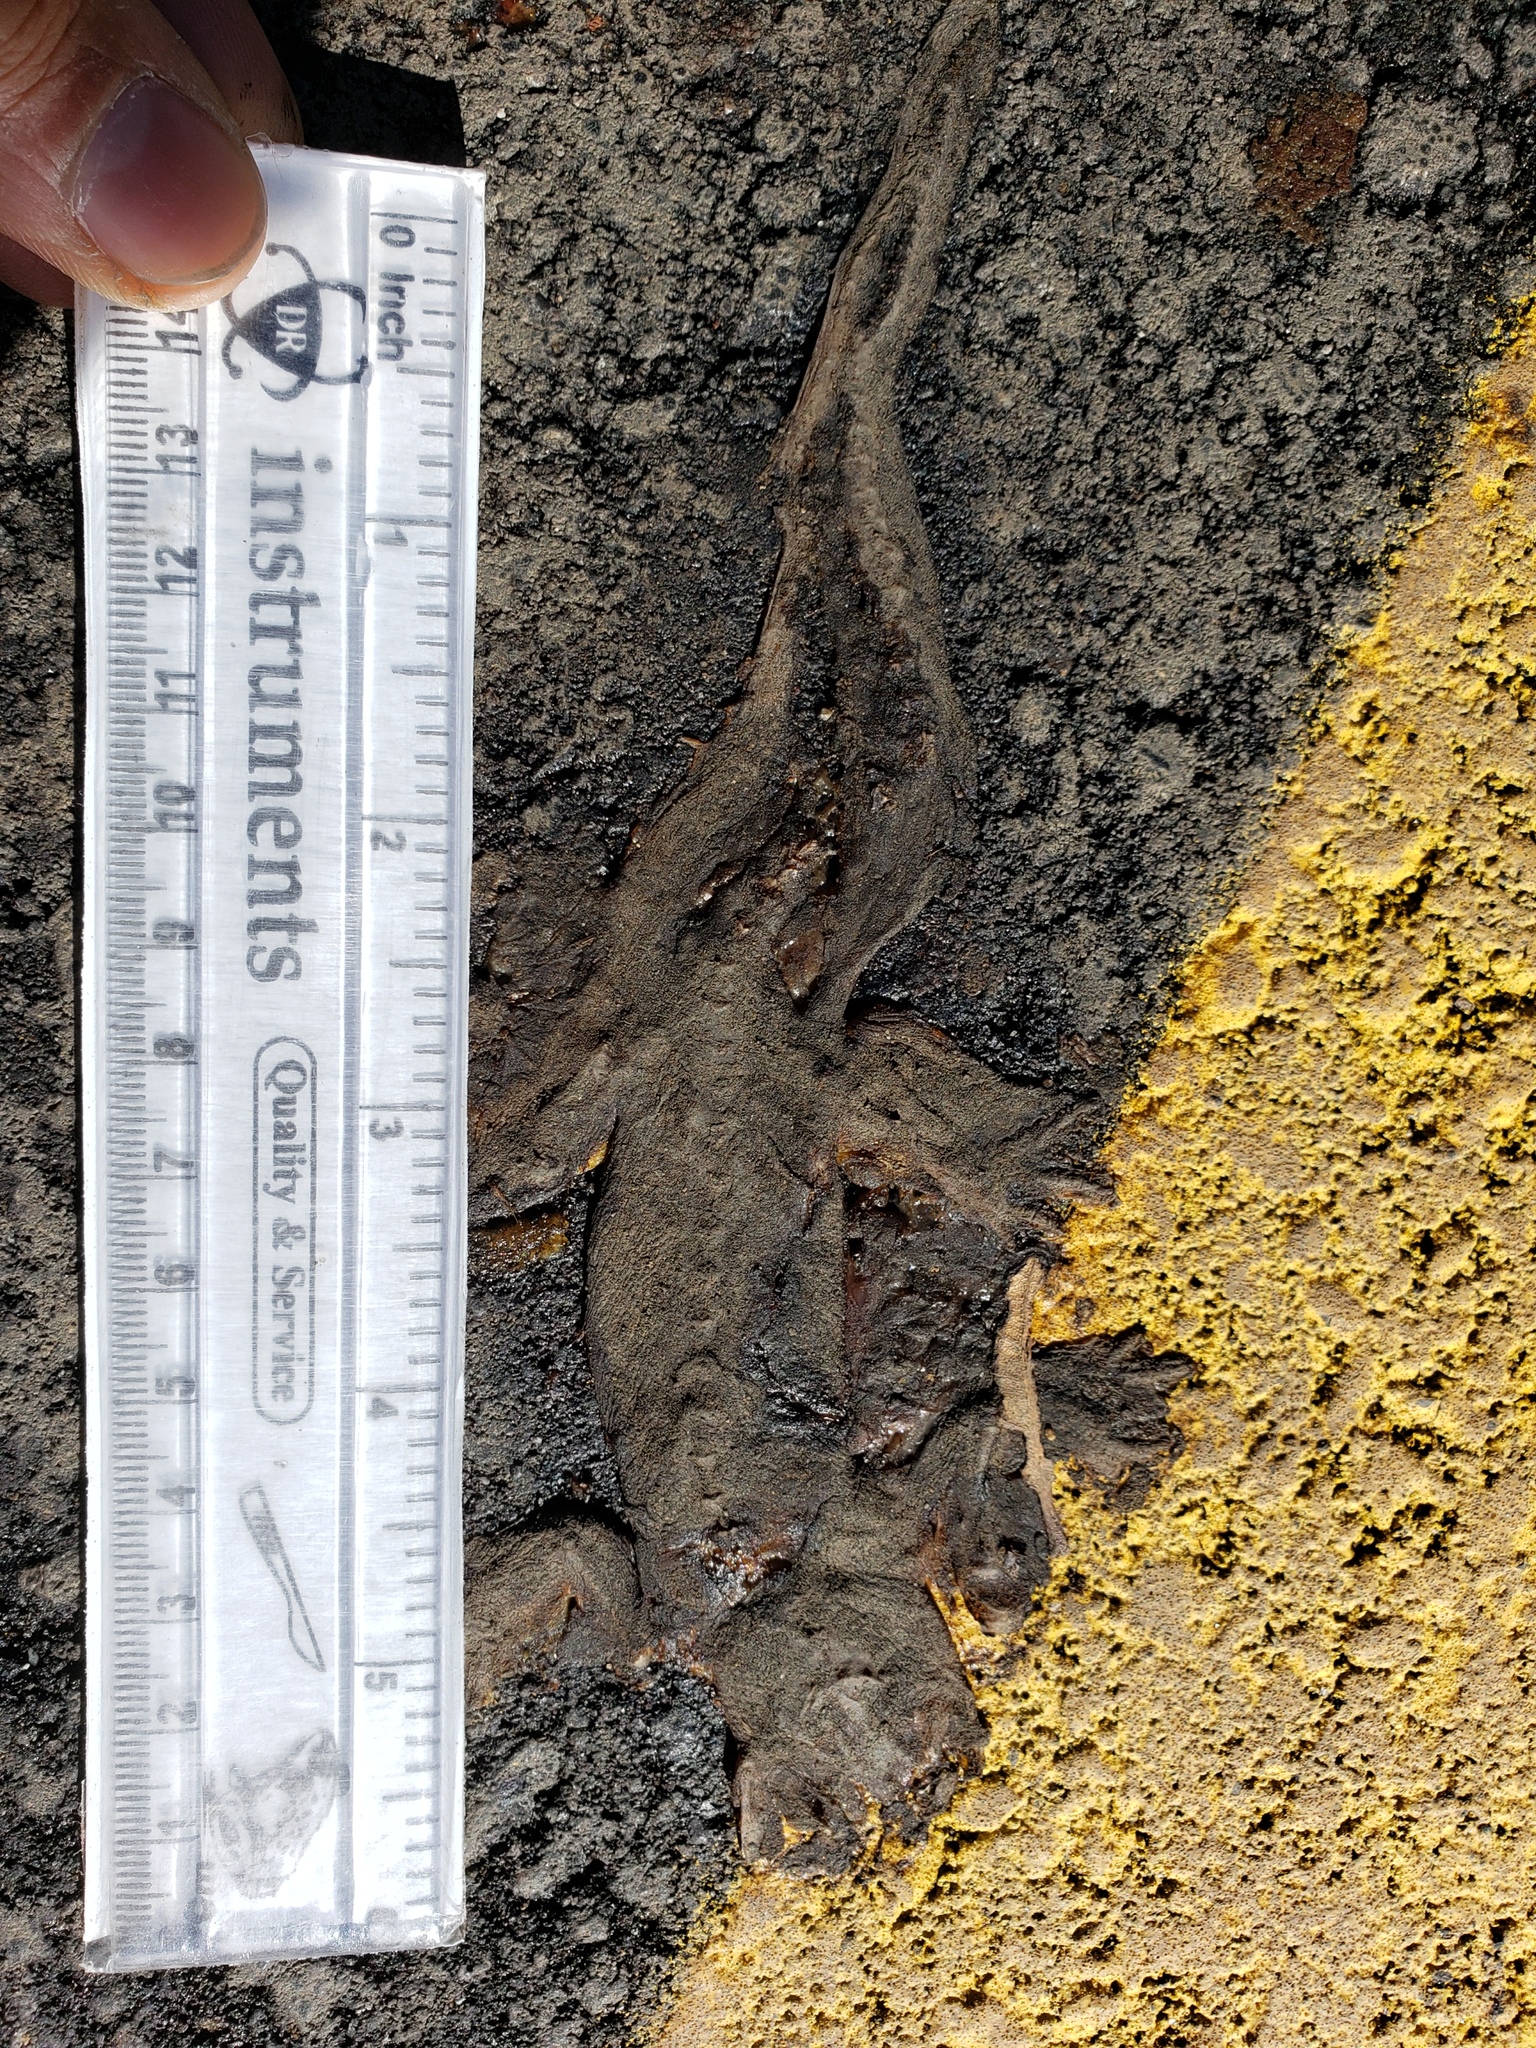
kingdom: Animalia
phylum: Chordata
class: Amphibia
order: Caudata
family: Salamandridae
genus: Taricha
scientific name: Taricha
